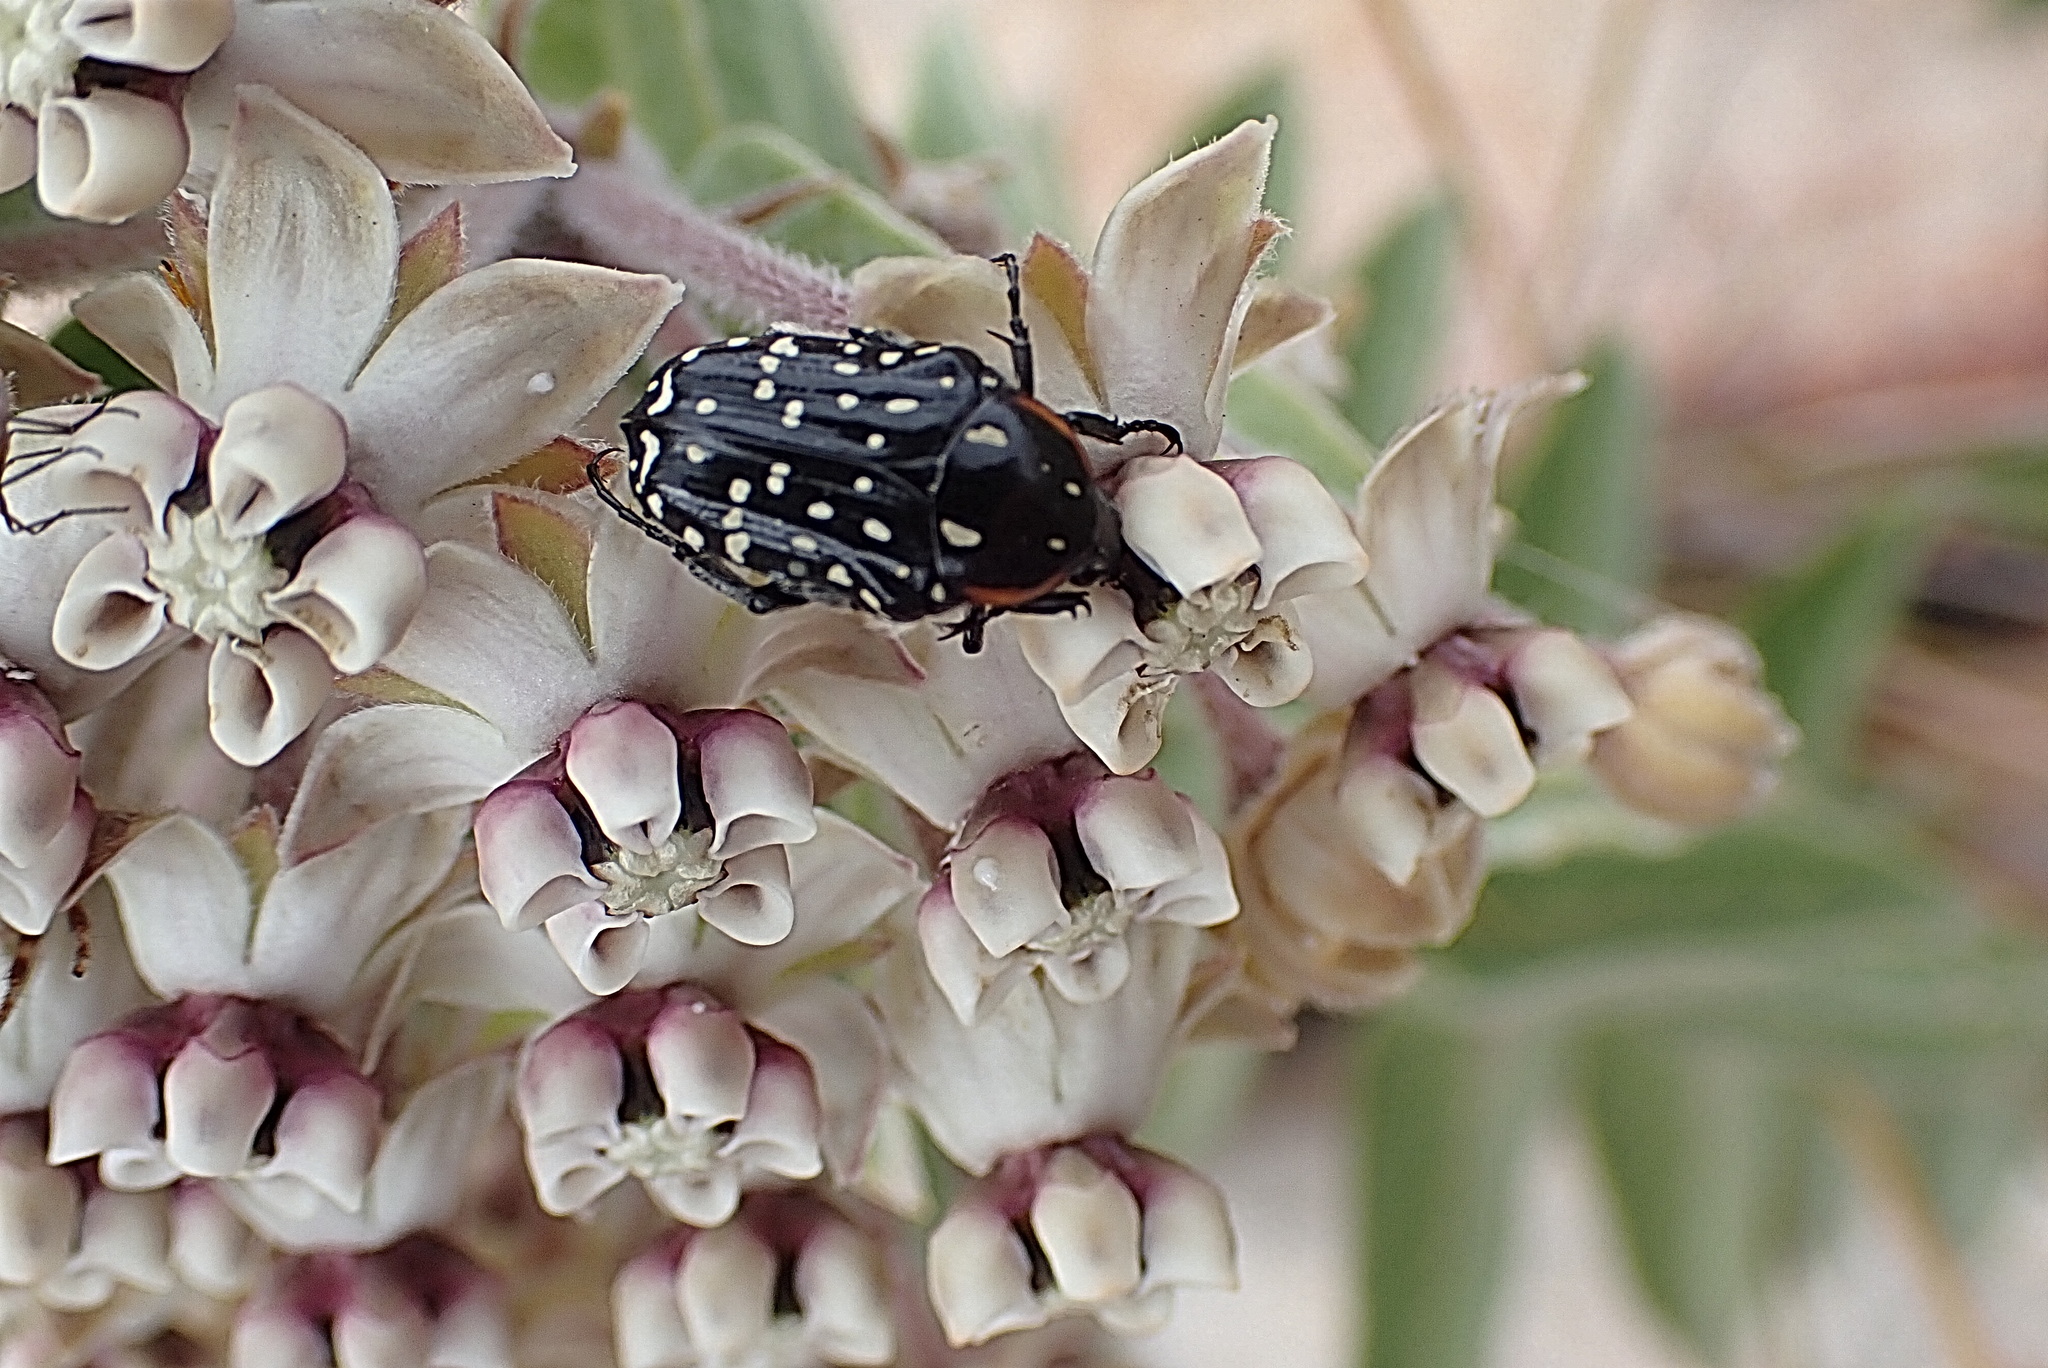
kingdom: Animalia
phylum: Arthropoda
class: Insecta
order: Coleoptera
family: Scarabaeidae
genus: Oxythyrea
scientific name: Oxythyrea
